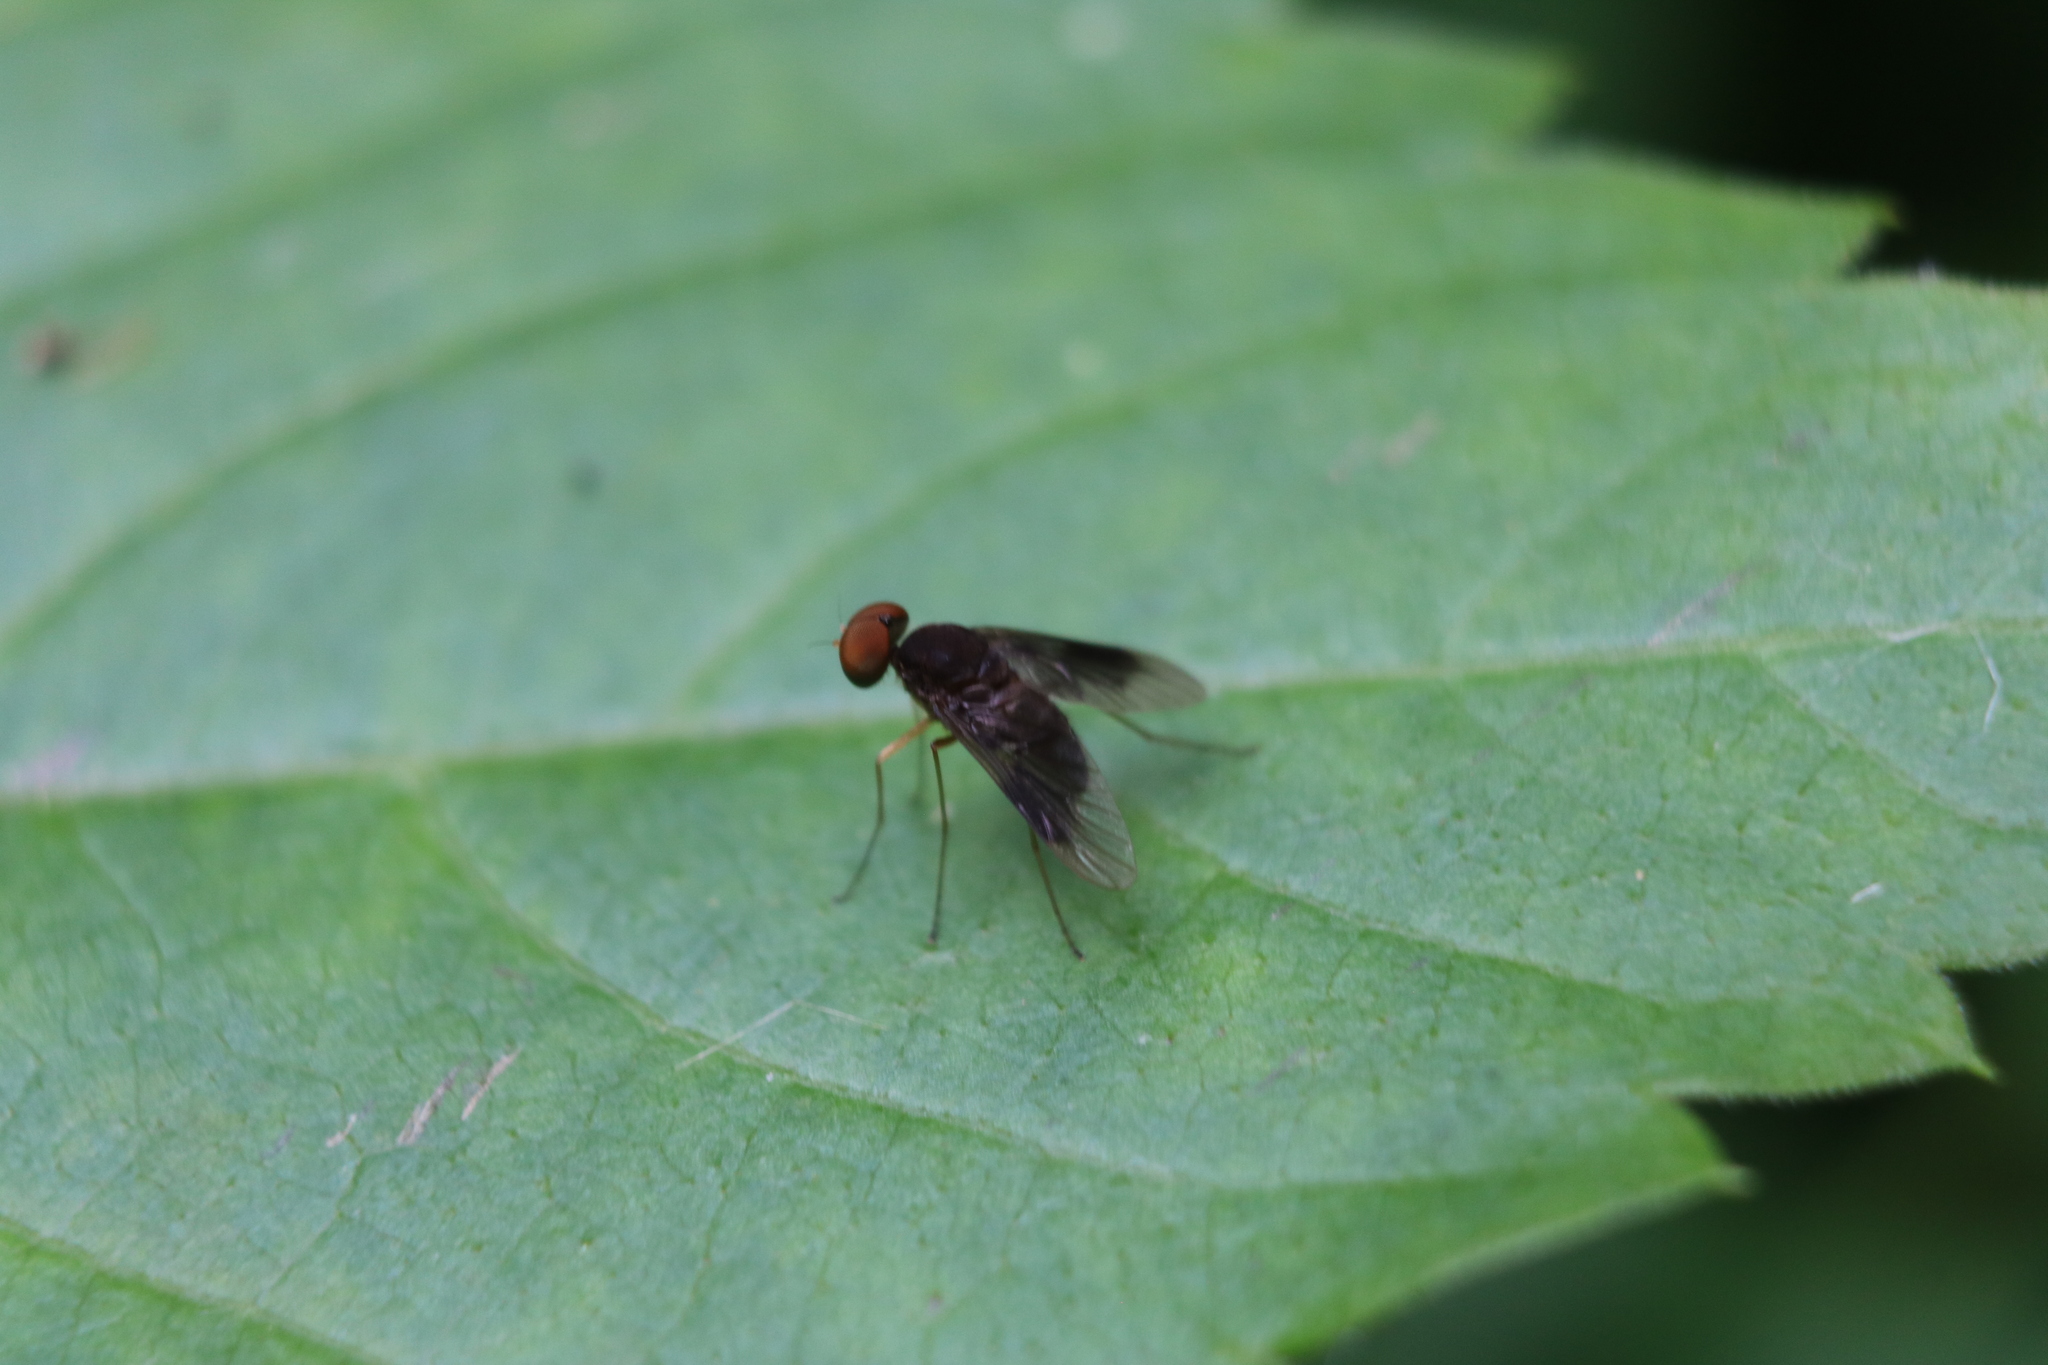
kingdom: Animalia
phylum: Arthropoda
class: Insecta
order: Diptera
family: Rhagionidae
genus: Chrysopilus
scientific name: Chrysopilus quadratus
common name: Quadrate snipe fly
